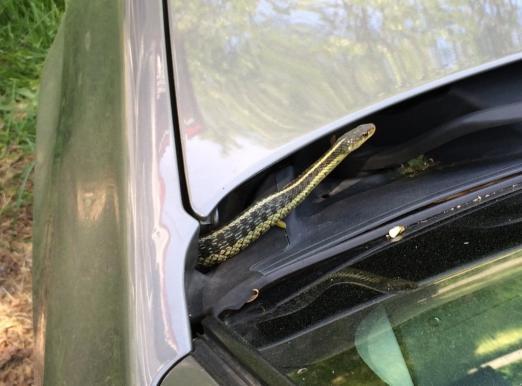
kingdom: Animalia
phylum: Chordata
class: Squamata
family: Colubridae
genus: Thamnophis
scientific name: Thamnophis sirtalis
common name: Common garter snake
